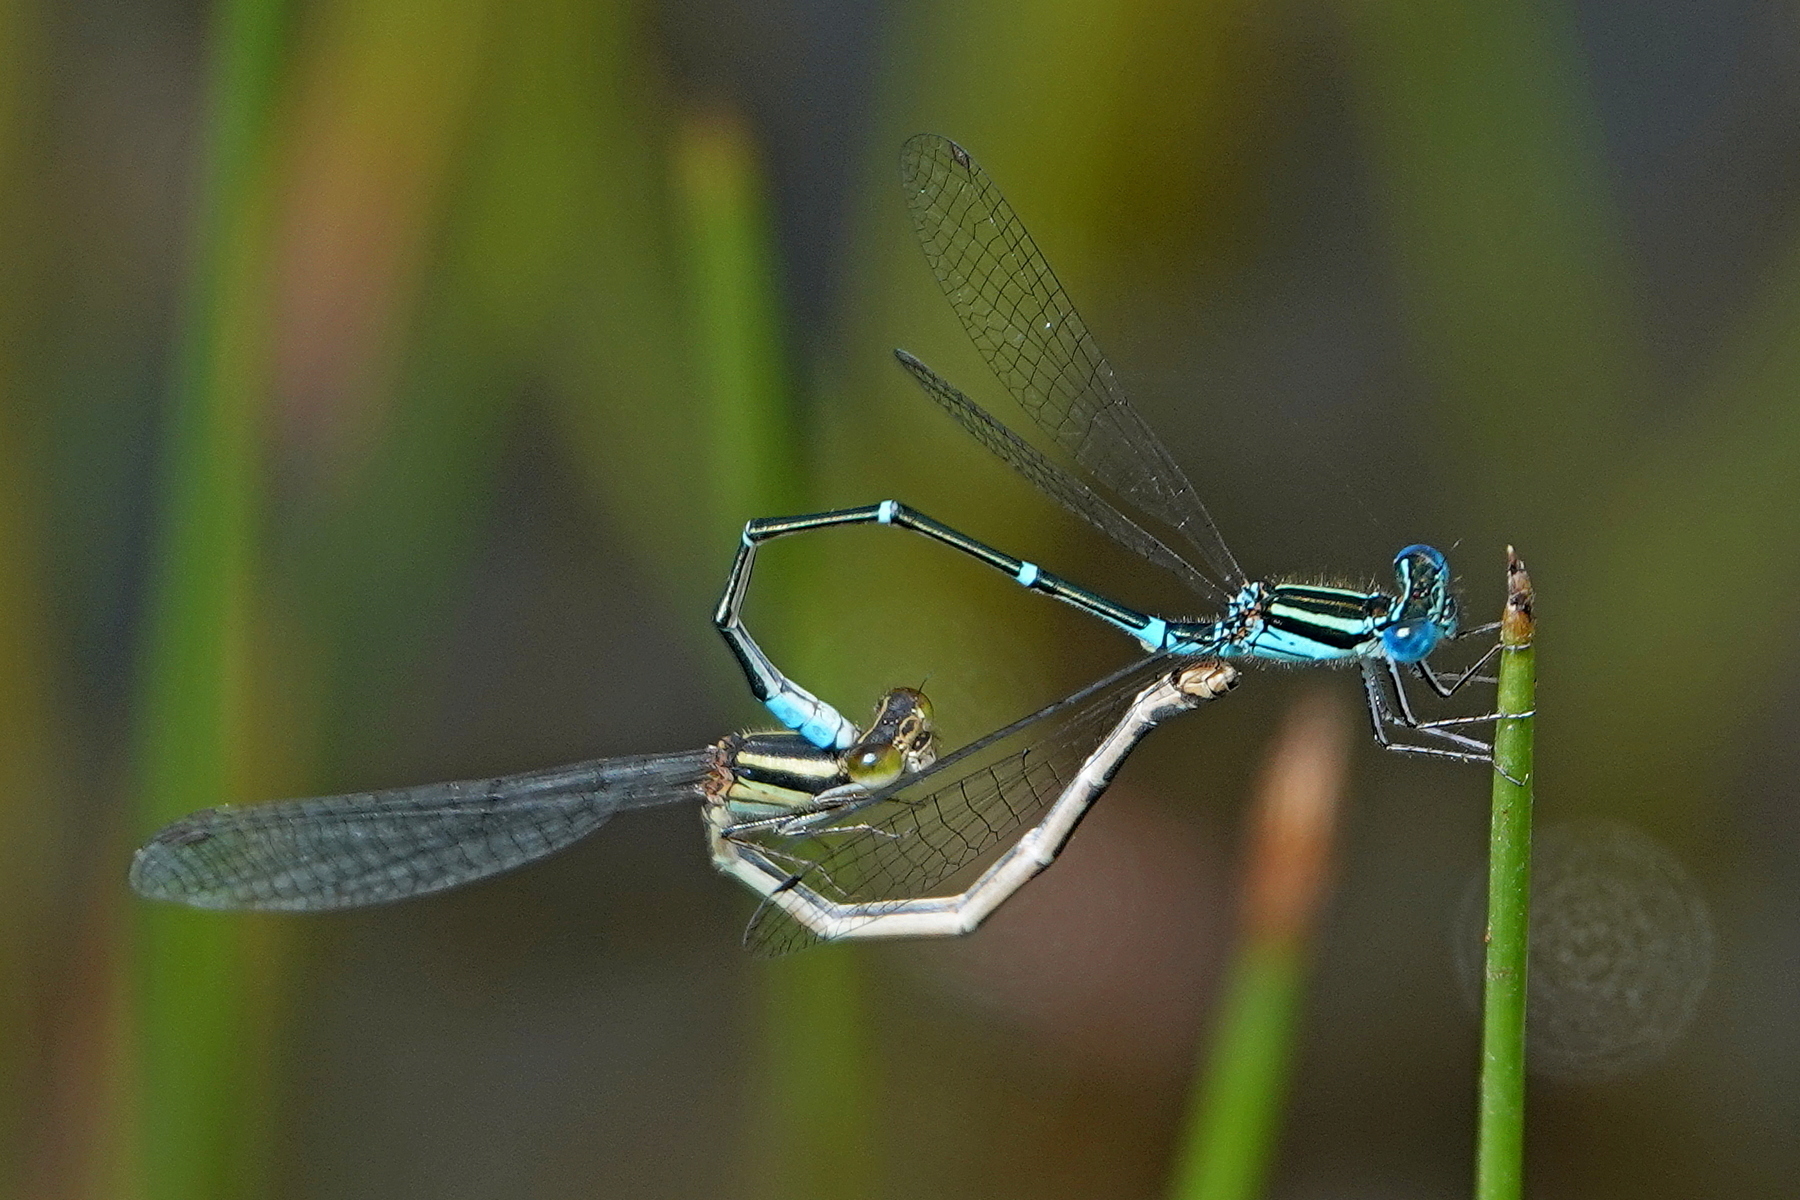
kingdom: Animalia
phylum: Arthropoda
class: Insecta
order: Odonata
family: Coenagrionidae
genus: Austroagrion
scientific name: Austroagrion watsoni
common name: Eastern billabongfly
